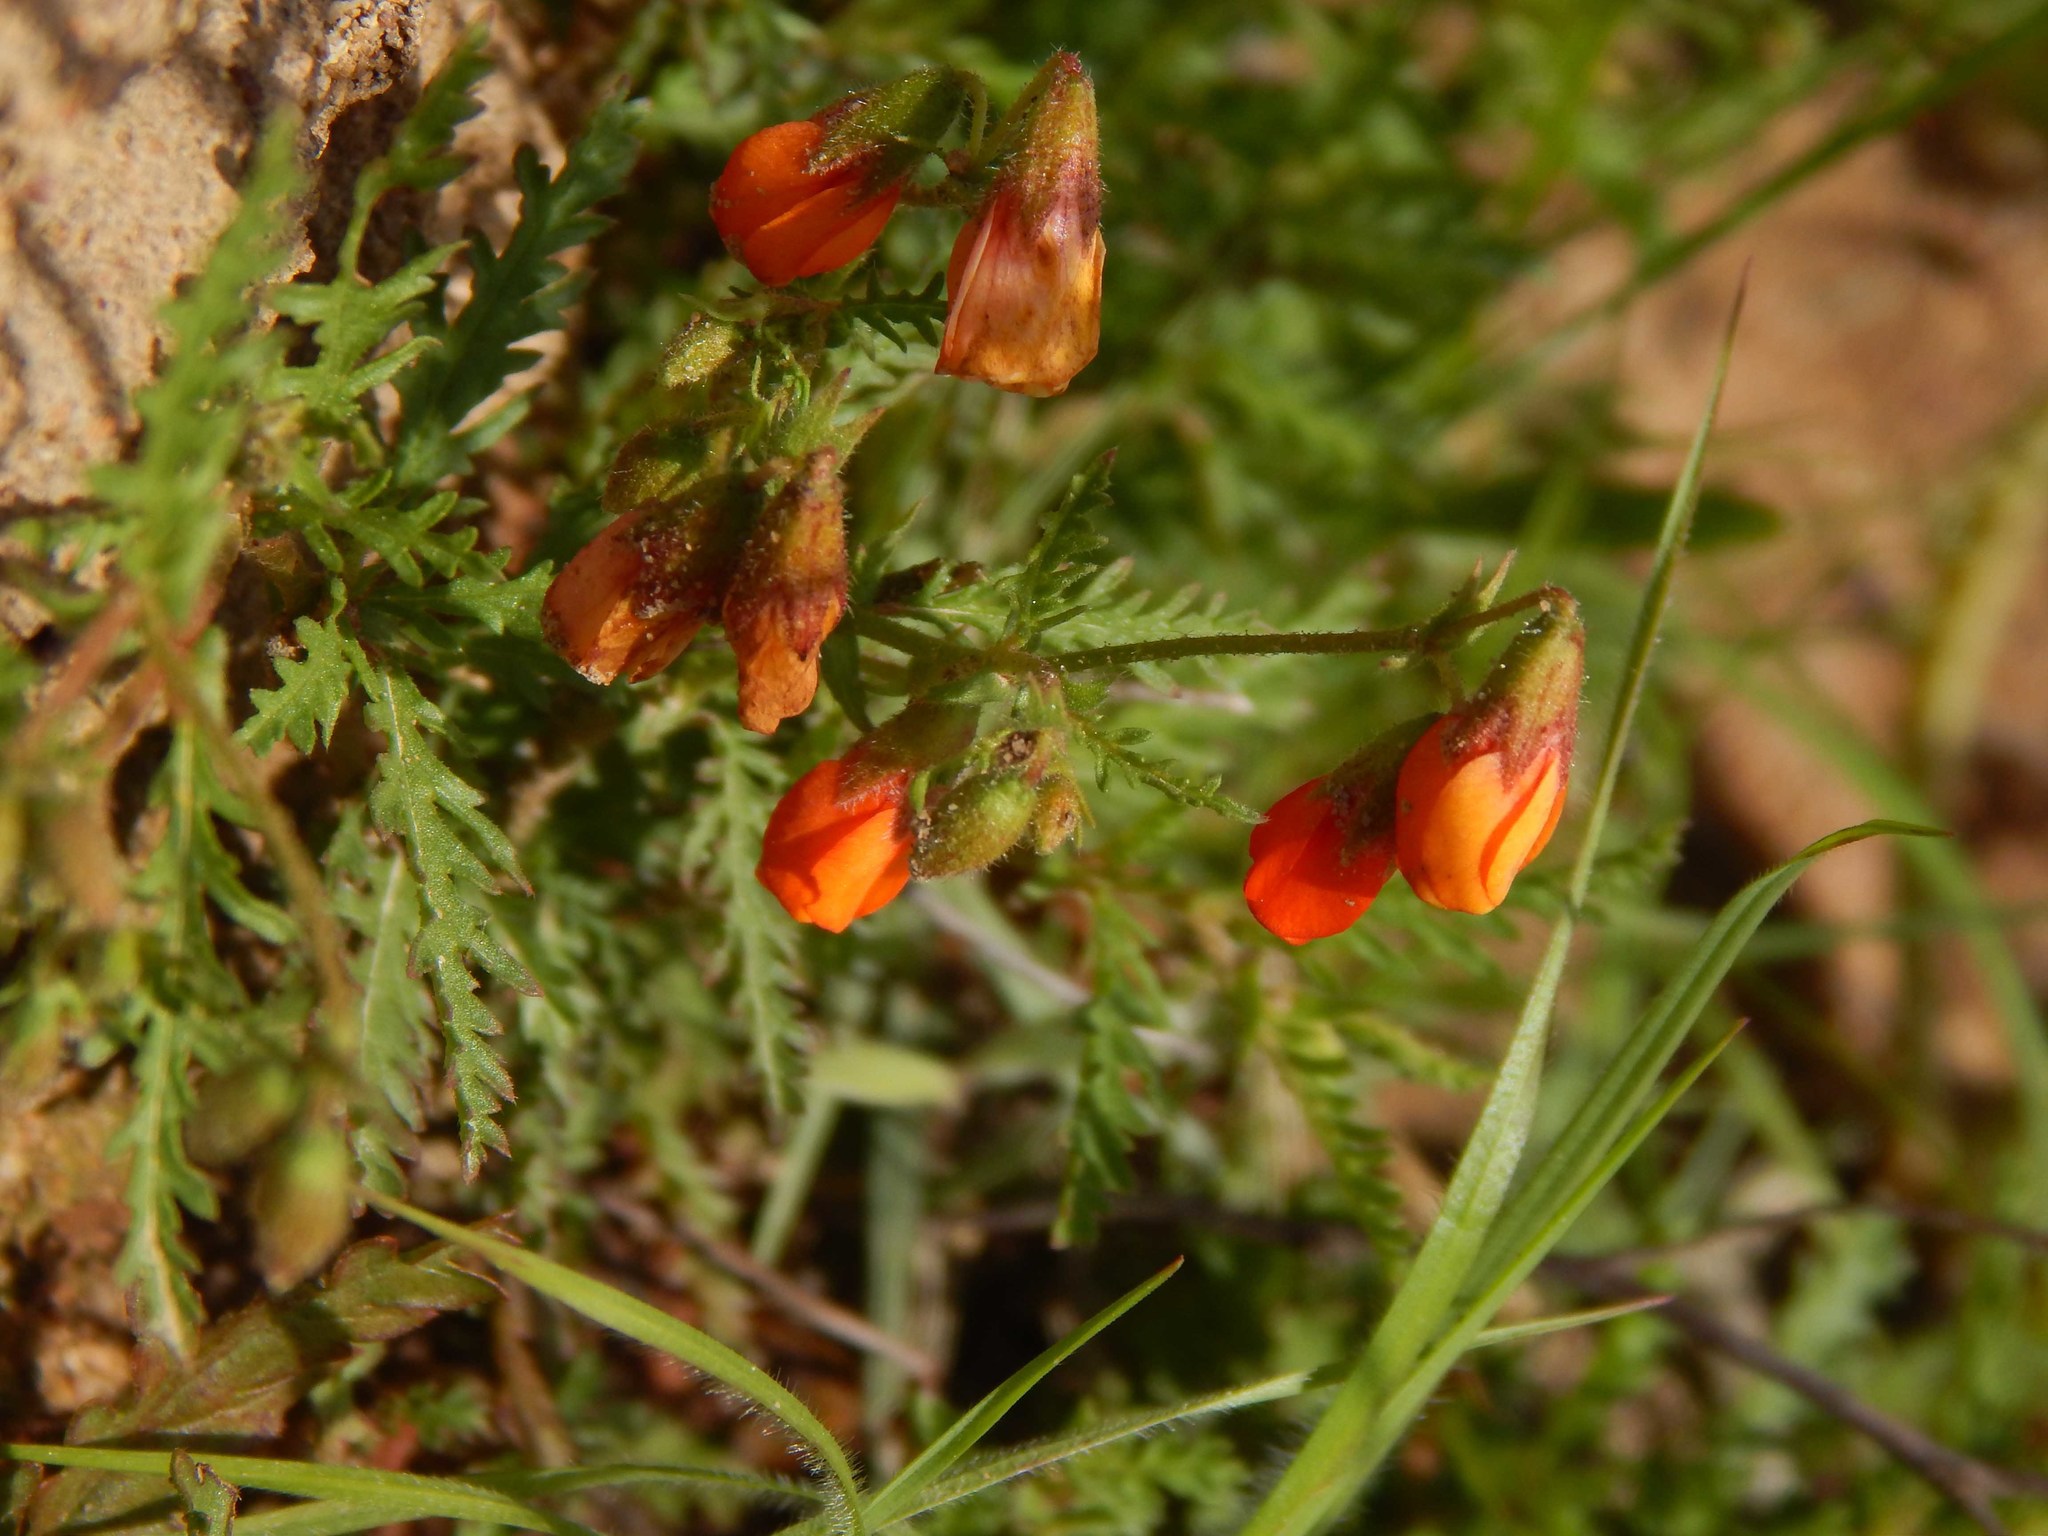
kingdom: Plantae
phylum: Tracheophyta
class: Magnoliopsida
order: Malvales
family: Malvaceae
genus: Hermannia
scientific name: Hermannia diffusa
